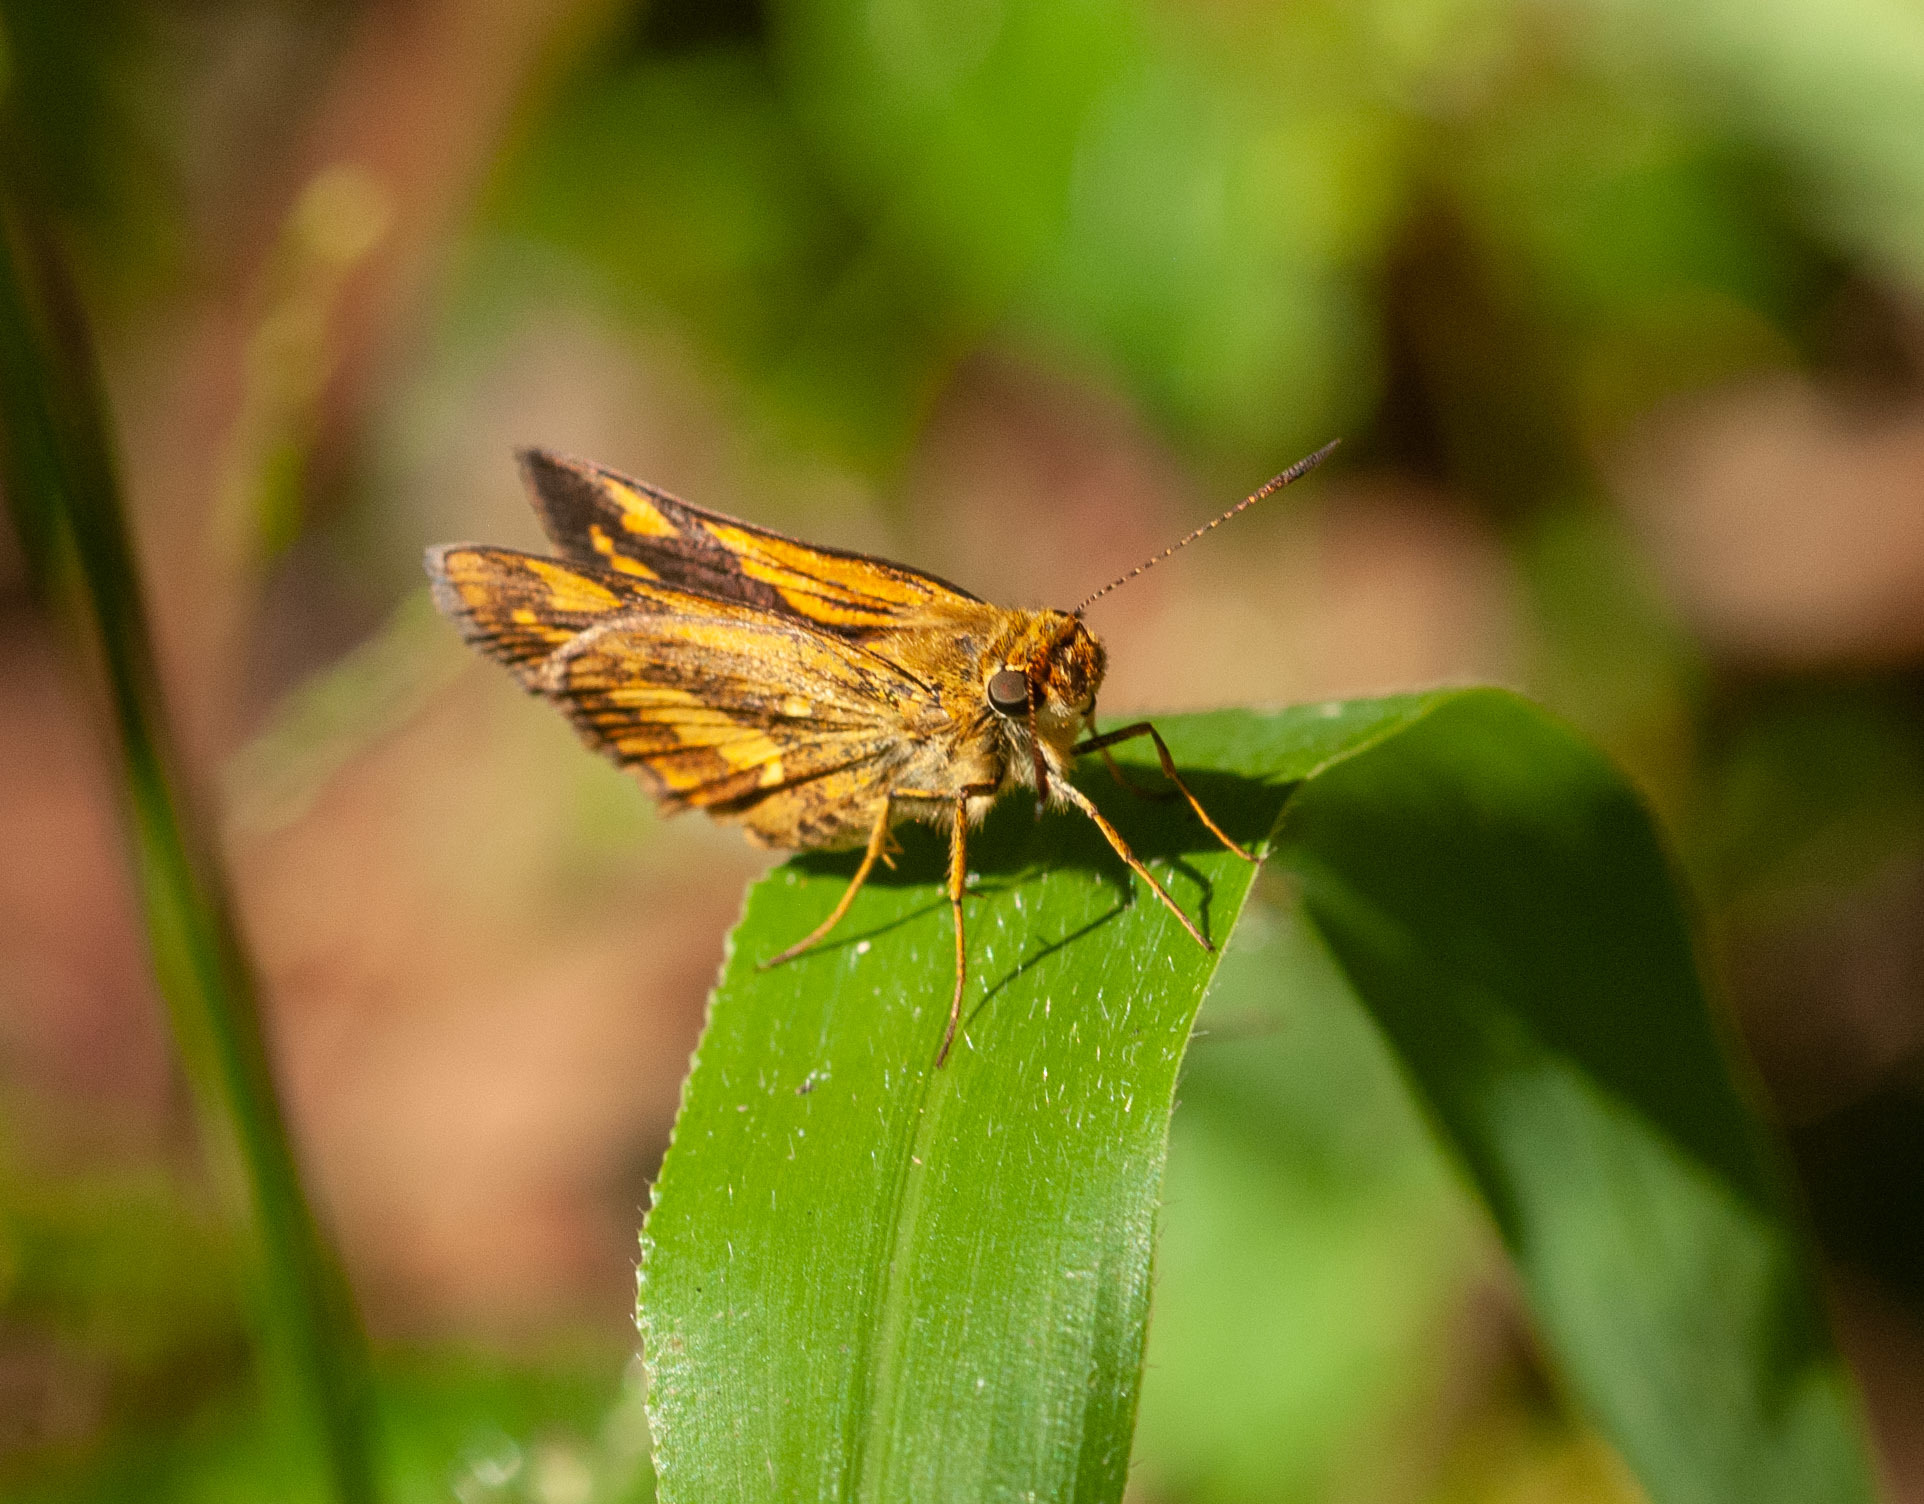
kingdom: Animalia
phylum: Arthropoda
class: Insecta
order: Lepidoptera
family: Hesperiidae
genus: Arrhenes
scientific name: Arrhenes marnas
